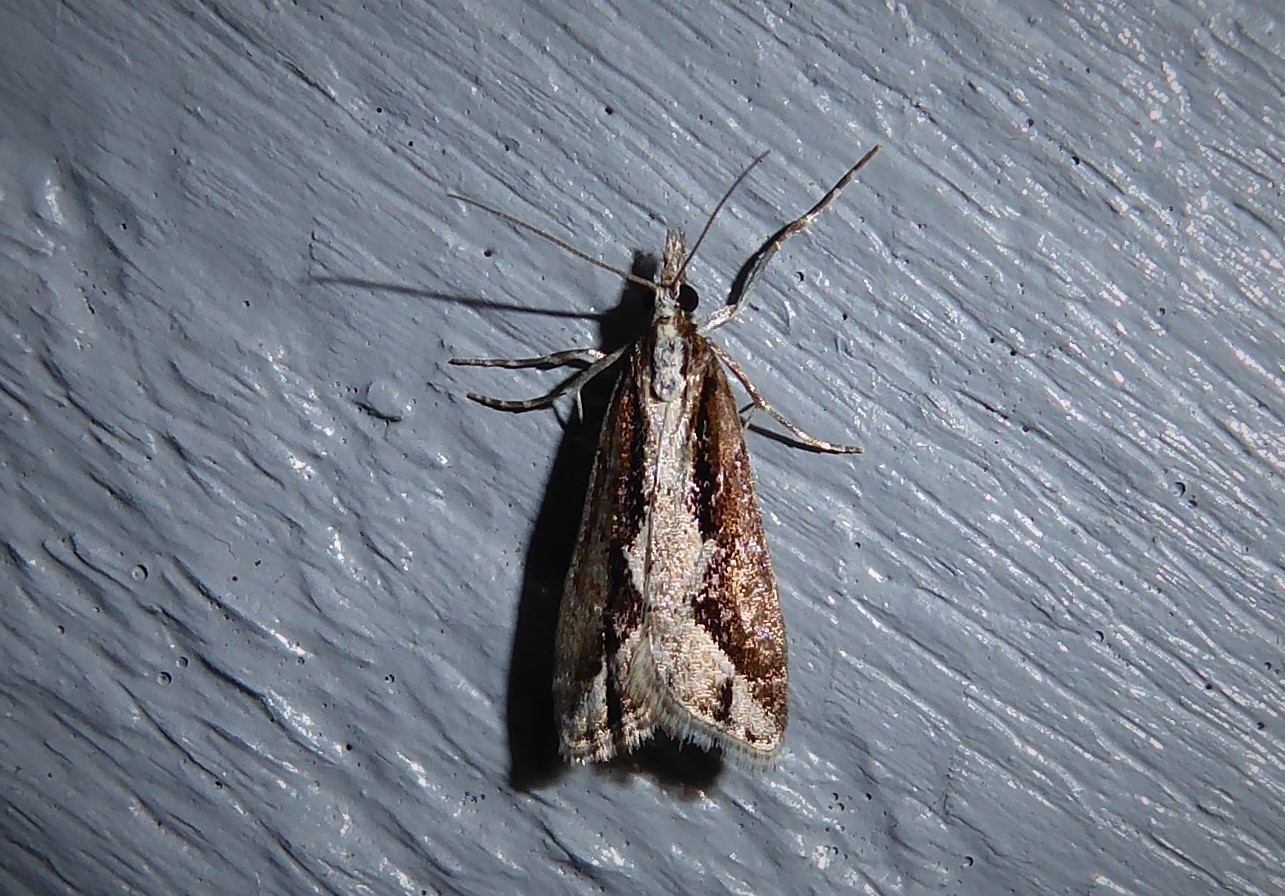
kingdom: Animalia
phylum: Arthropoda
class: Insecta
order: Lepidoptera
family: Crambidae
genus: Eudonia
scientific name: Eudonia steropaea
